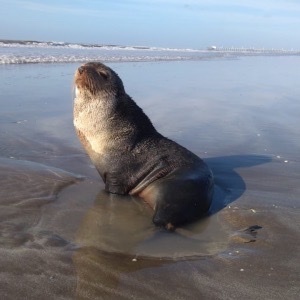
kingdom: Animalia
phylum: Chordata
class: Mammalia
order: Carnivora
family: Otariidae
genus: Arctocephalus
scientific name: Arctocephalus australis
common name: South american fur seal
